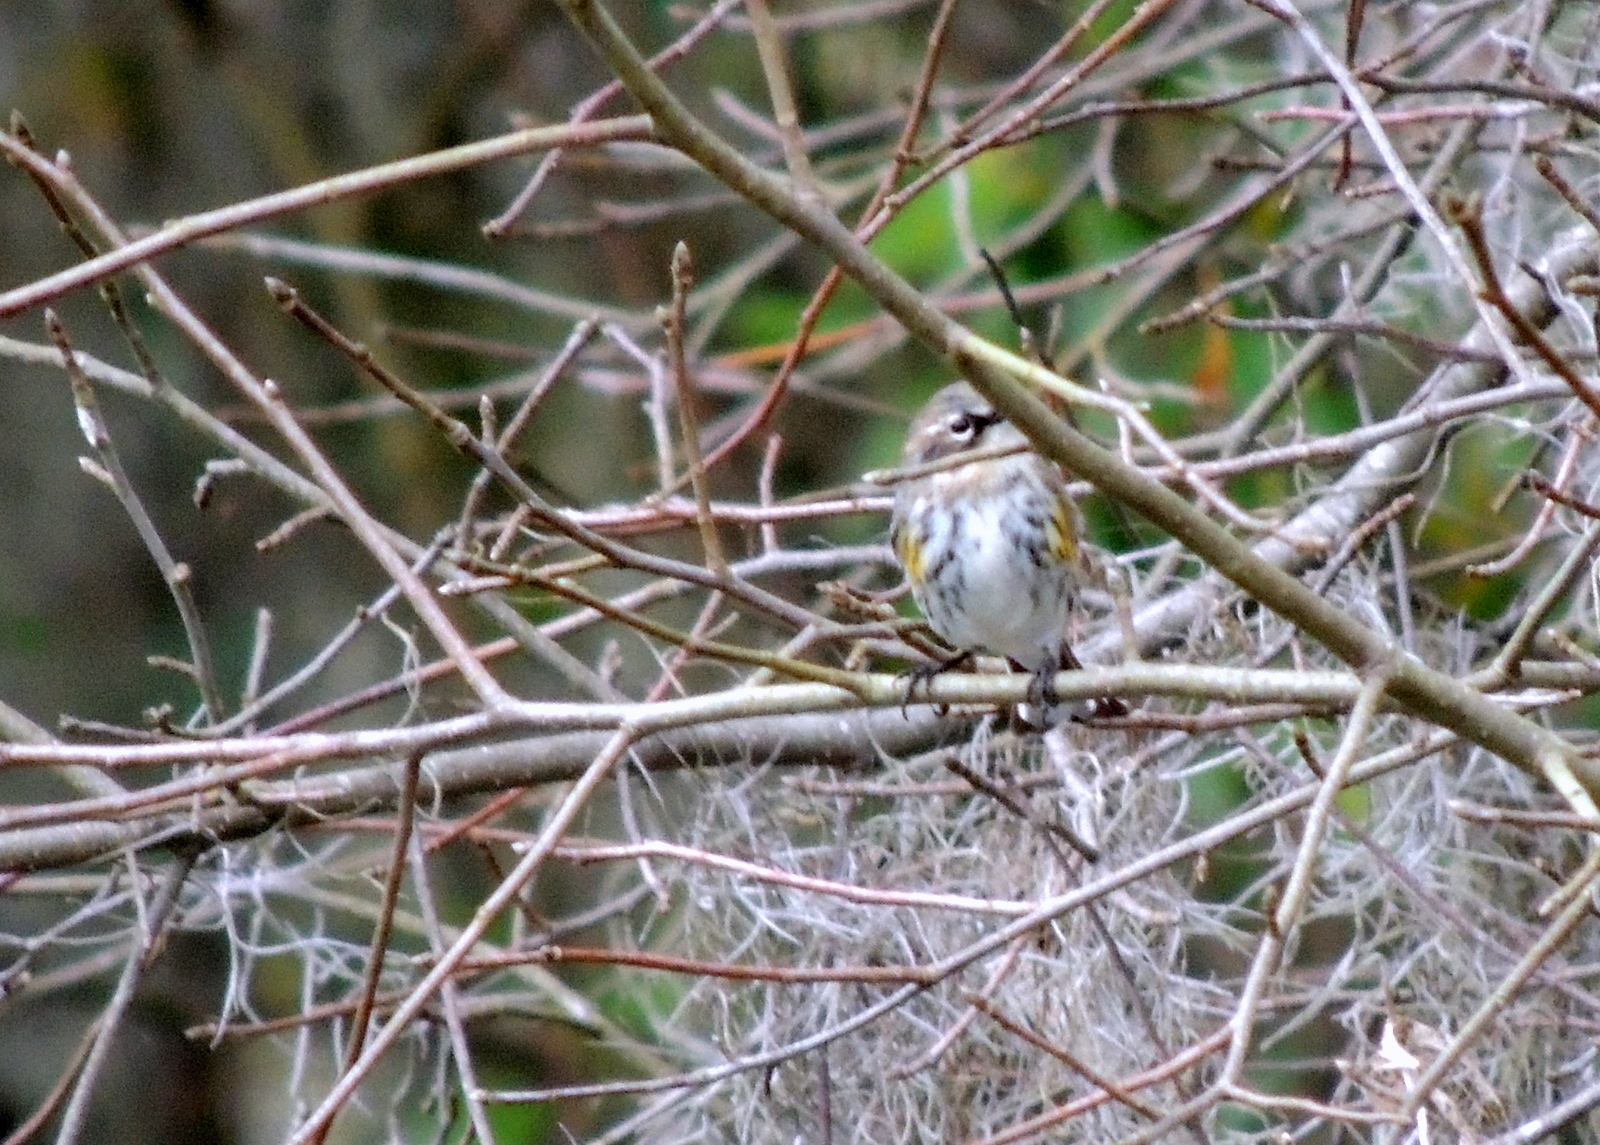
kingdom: Animalia
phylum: Chordata
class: Aves
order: Passeriformes
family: Parulidae
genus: Setophaga
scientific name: Setophaga coronata
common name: Myrtle warbler
